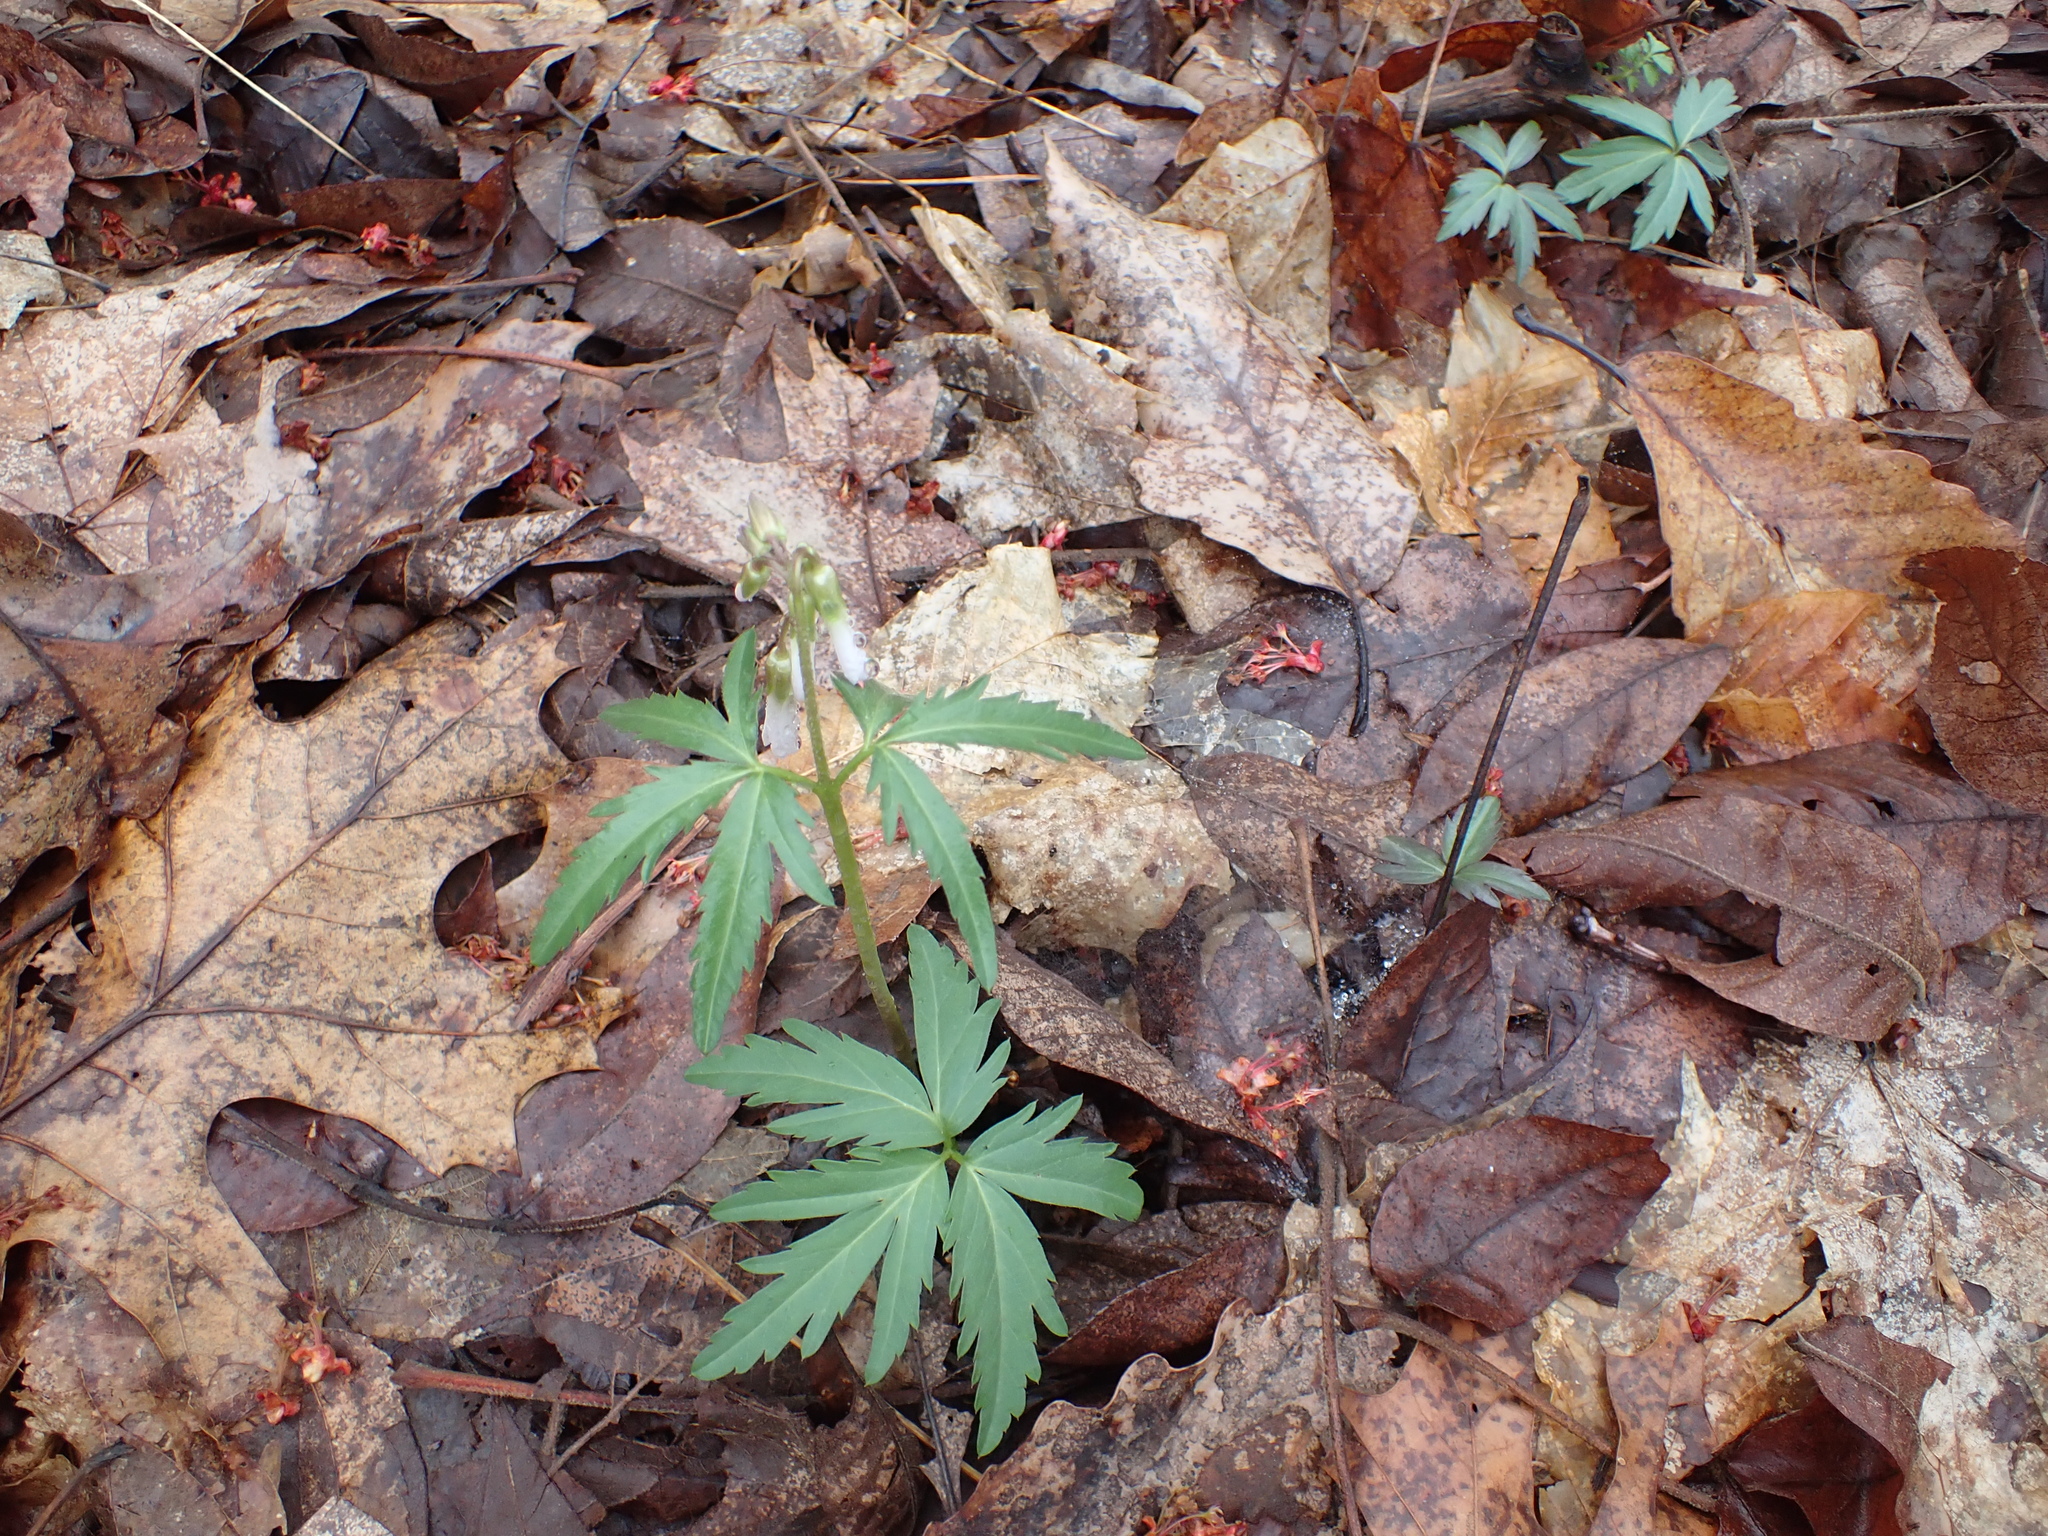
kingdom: Plantae
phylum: Tracheophyta
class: Magnoliopsida
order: Brassicales
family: Brassicaceae
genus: Cardamine
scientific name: Cardamine concatenata
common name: Cut-leaf toothcup
